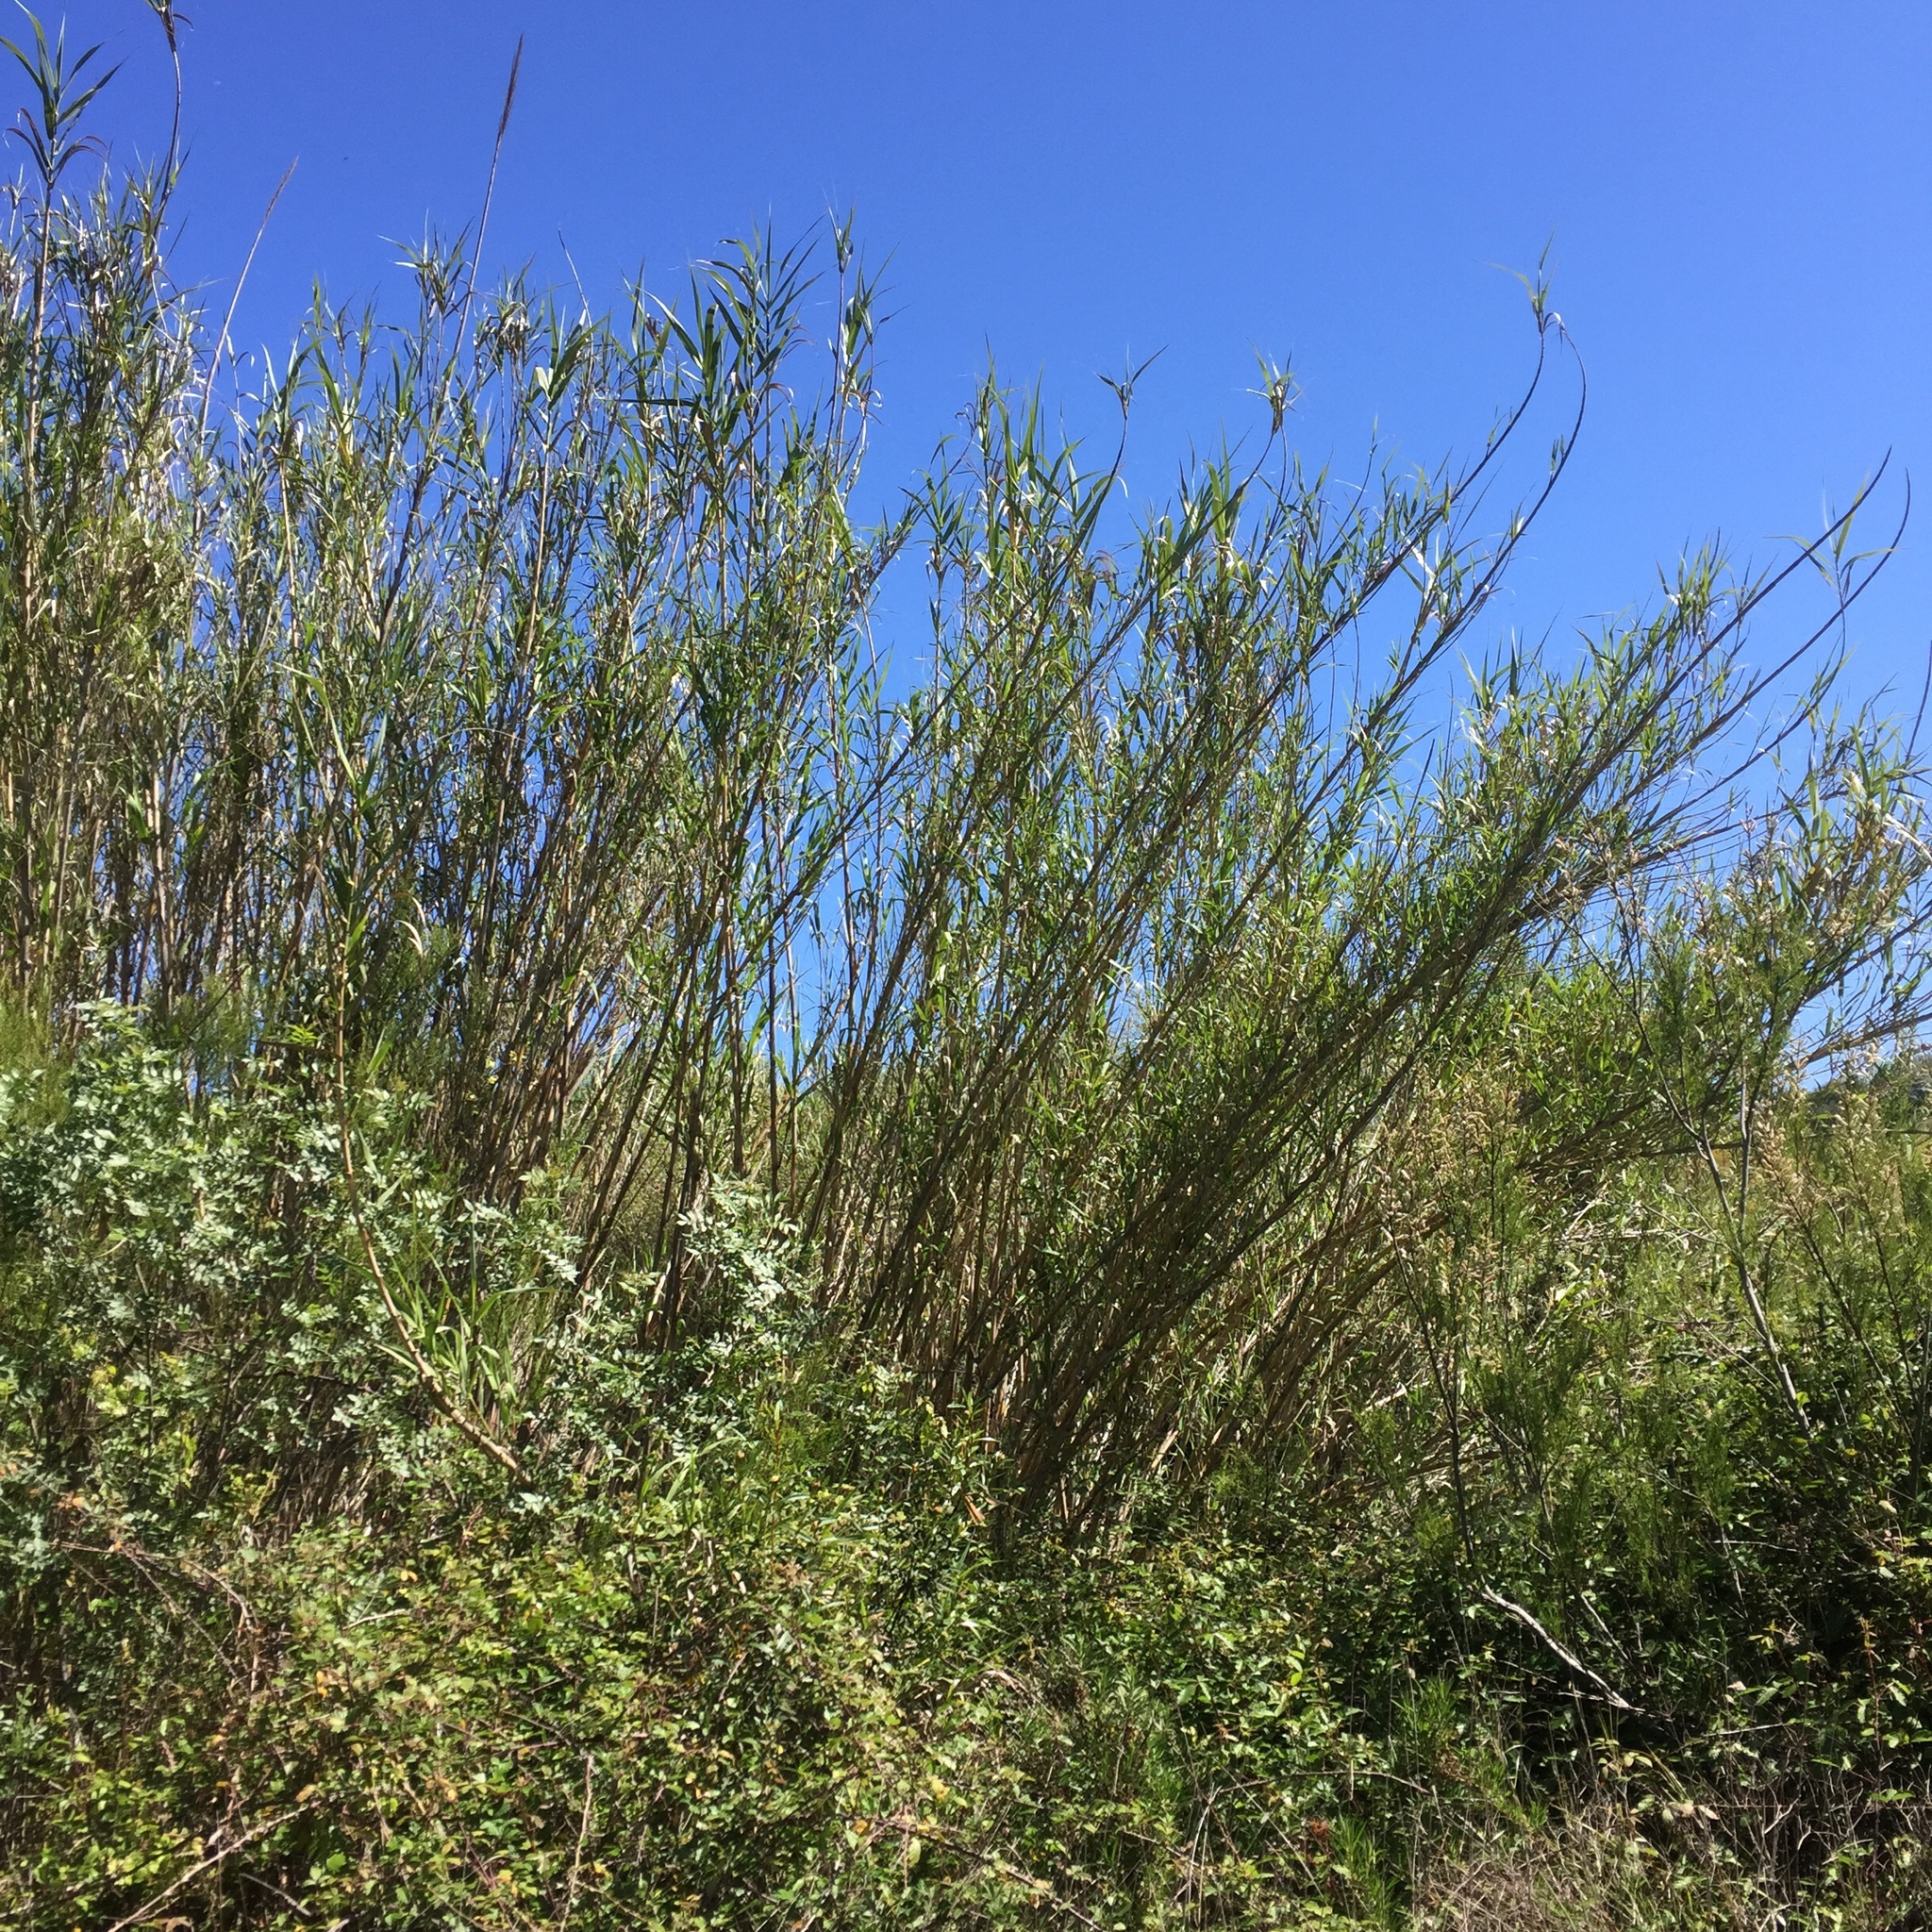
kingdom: Plantae
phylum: Tracheophyta
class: Liliopsida
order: Poales
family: Poaceae
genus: Arundo
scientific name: Arundo donax
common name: Giant reed
